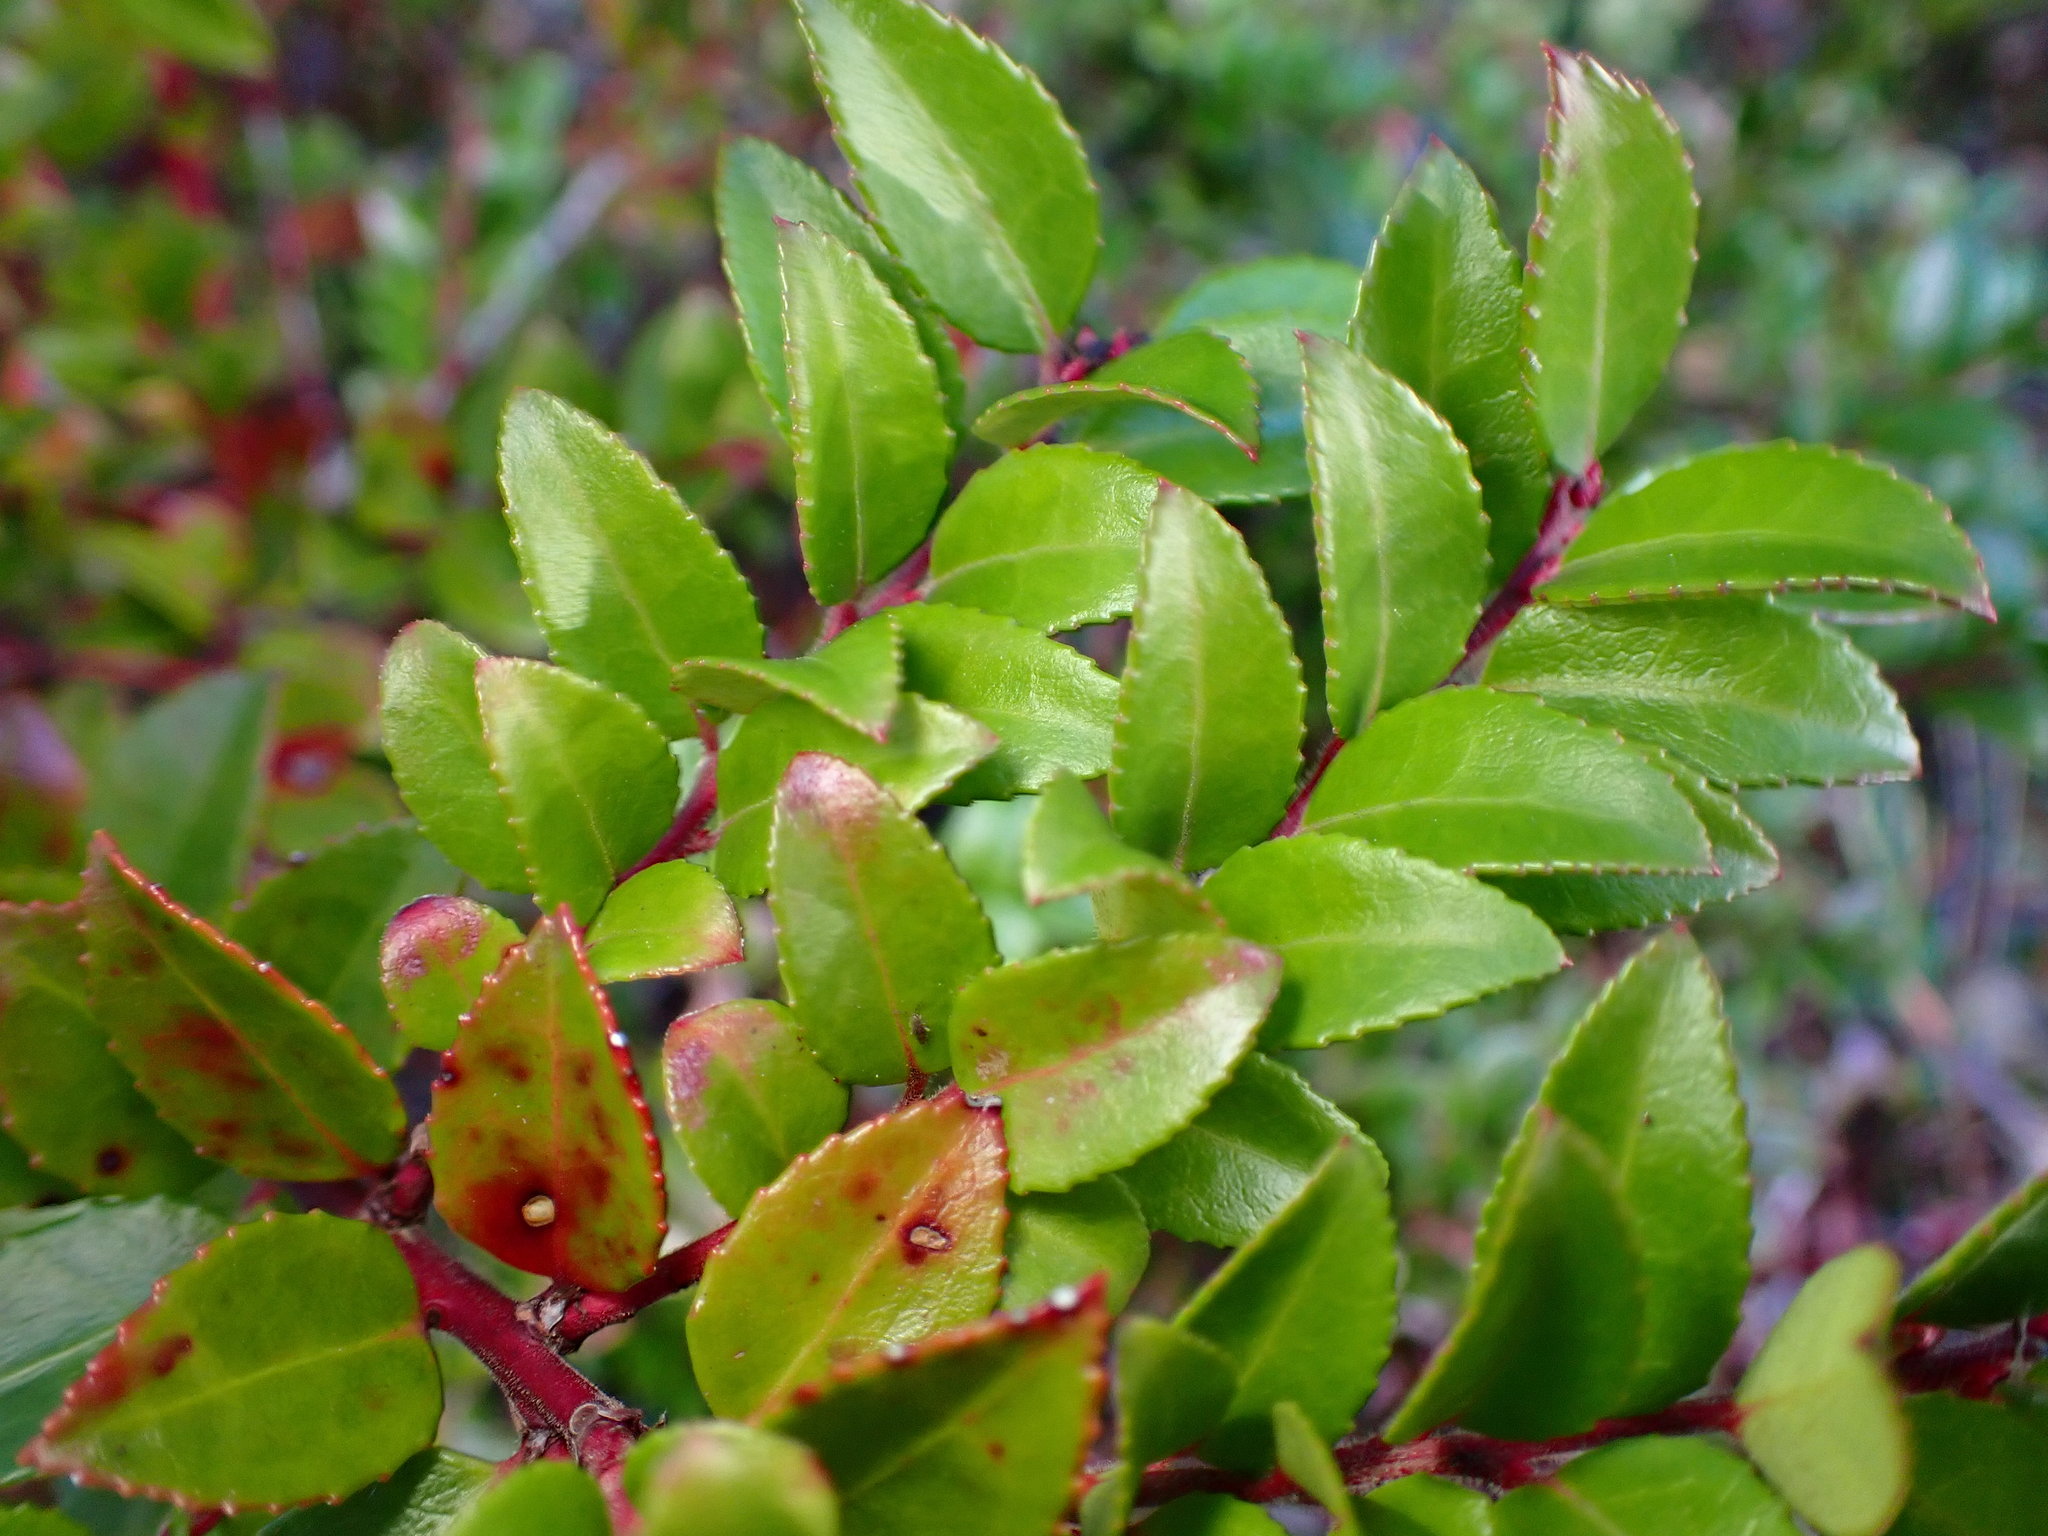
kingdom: Plantae
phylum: Tracheophyta
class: Magnoliopsida
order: Ericales
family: Ericaceae
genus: Vaccinium
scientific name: Vaccinium ovatum
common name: California-huckleberry
